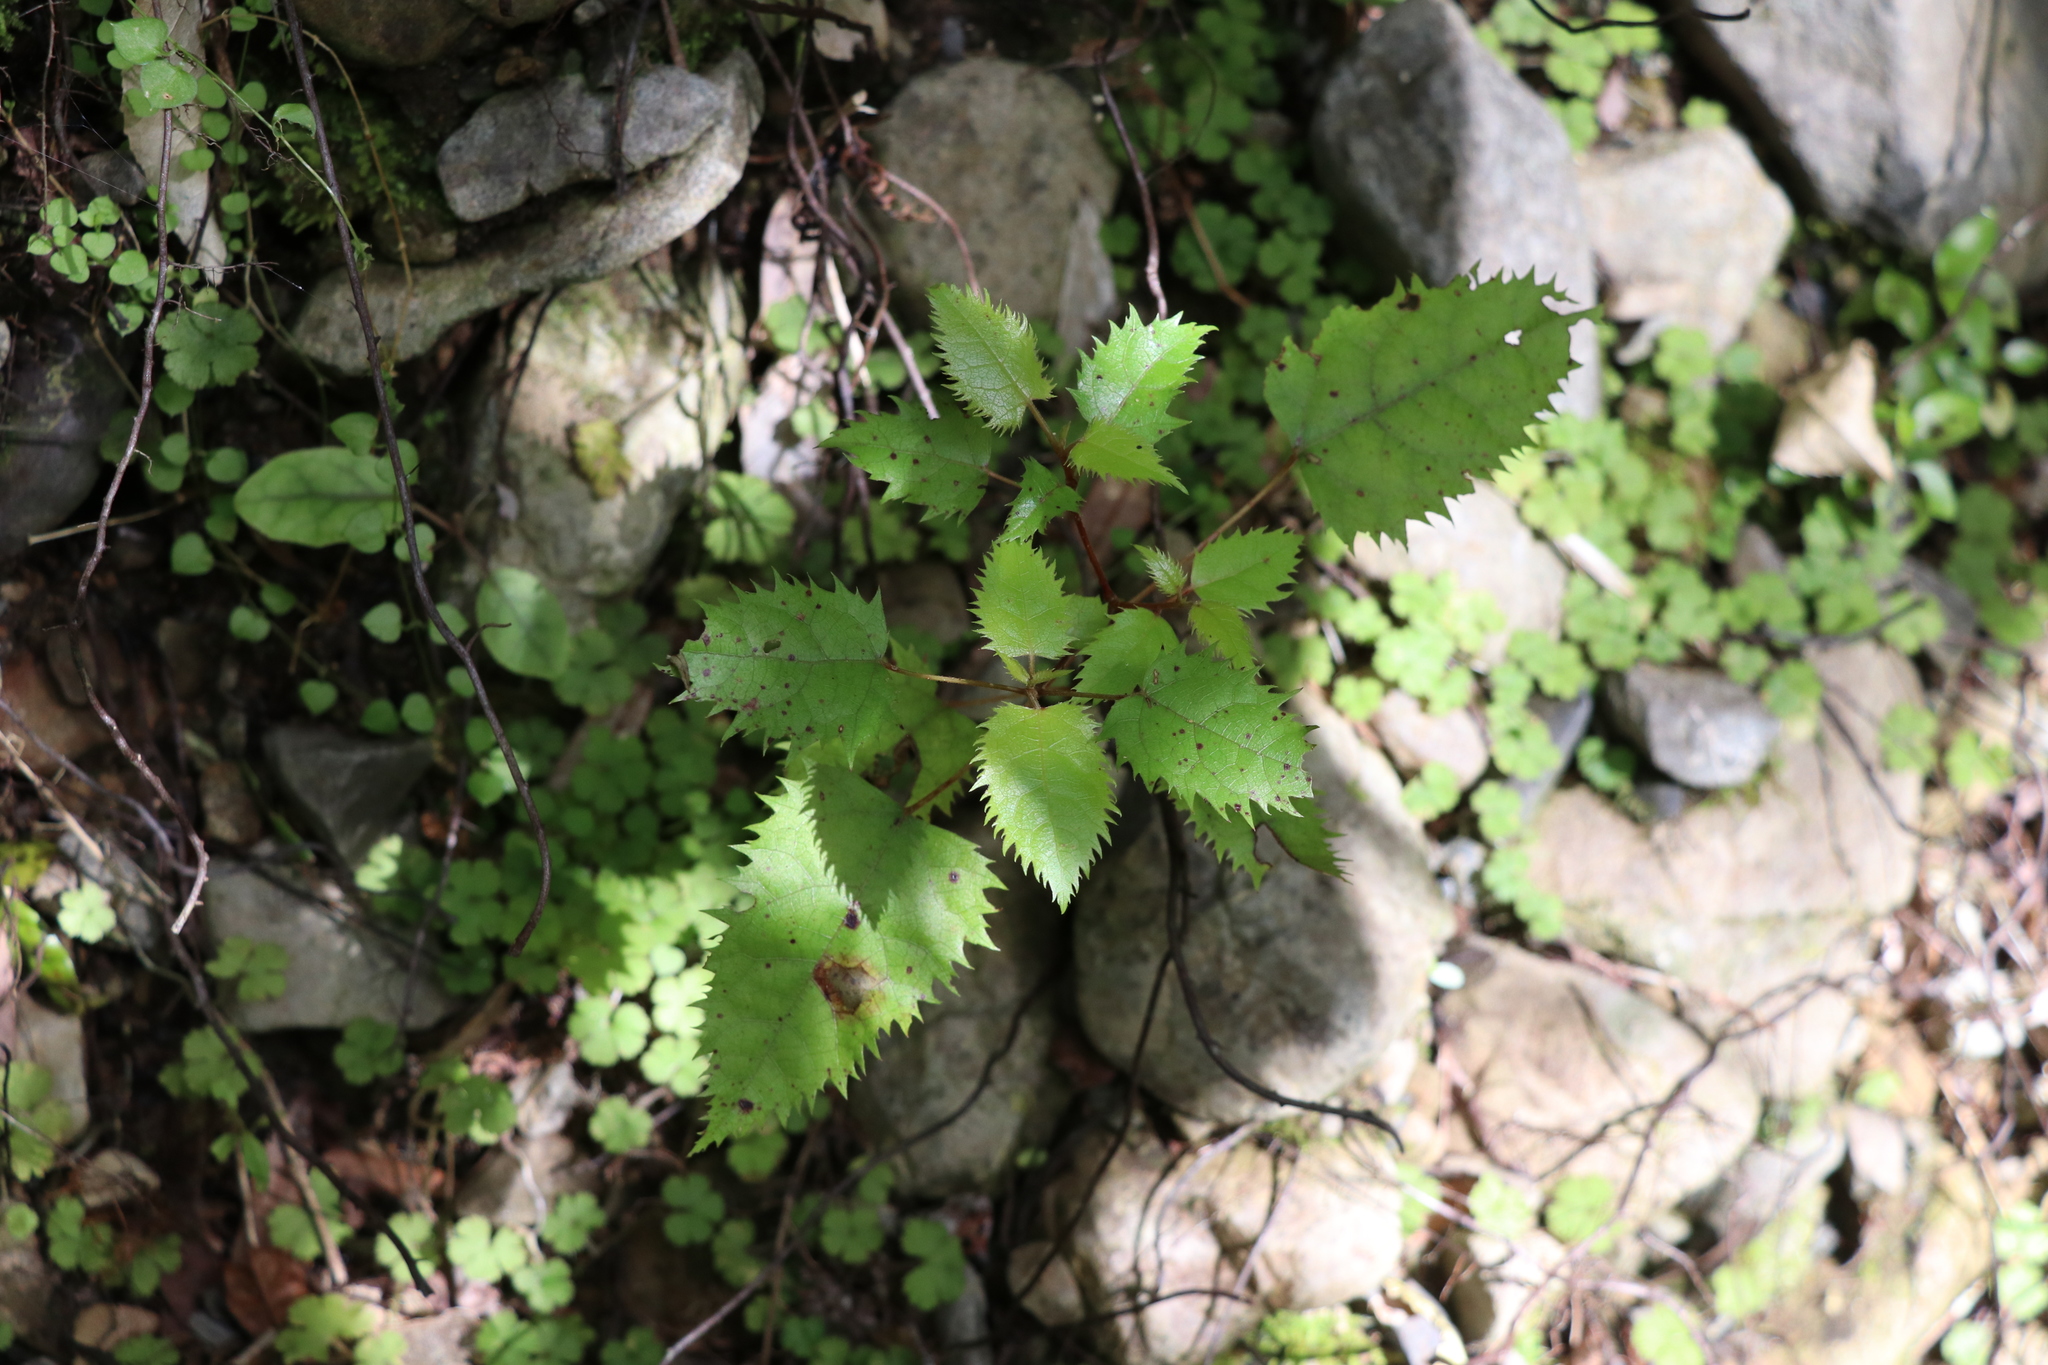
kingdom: Plantae
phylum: Tracheophyta
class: Magnoliopsida
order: Oxalidales
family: Elaeocarpaceae
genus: Aristotelia
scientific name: Aristotelia serrata
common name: New zealand wineberry
